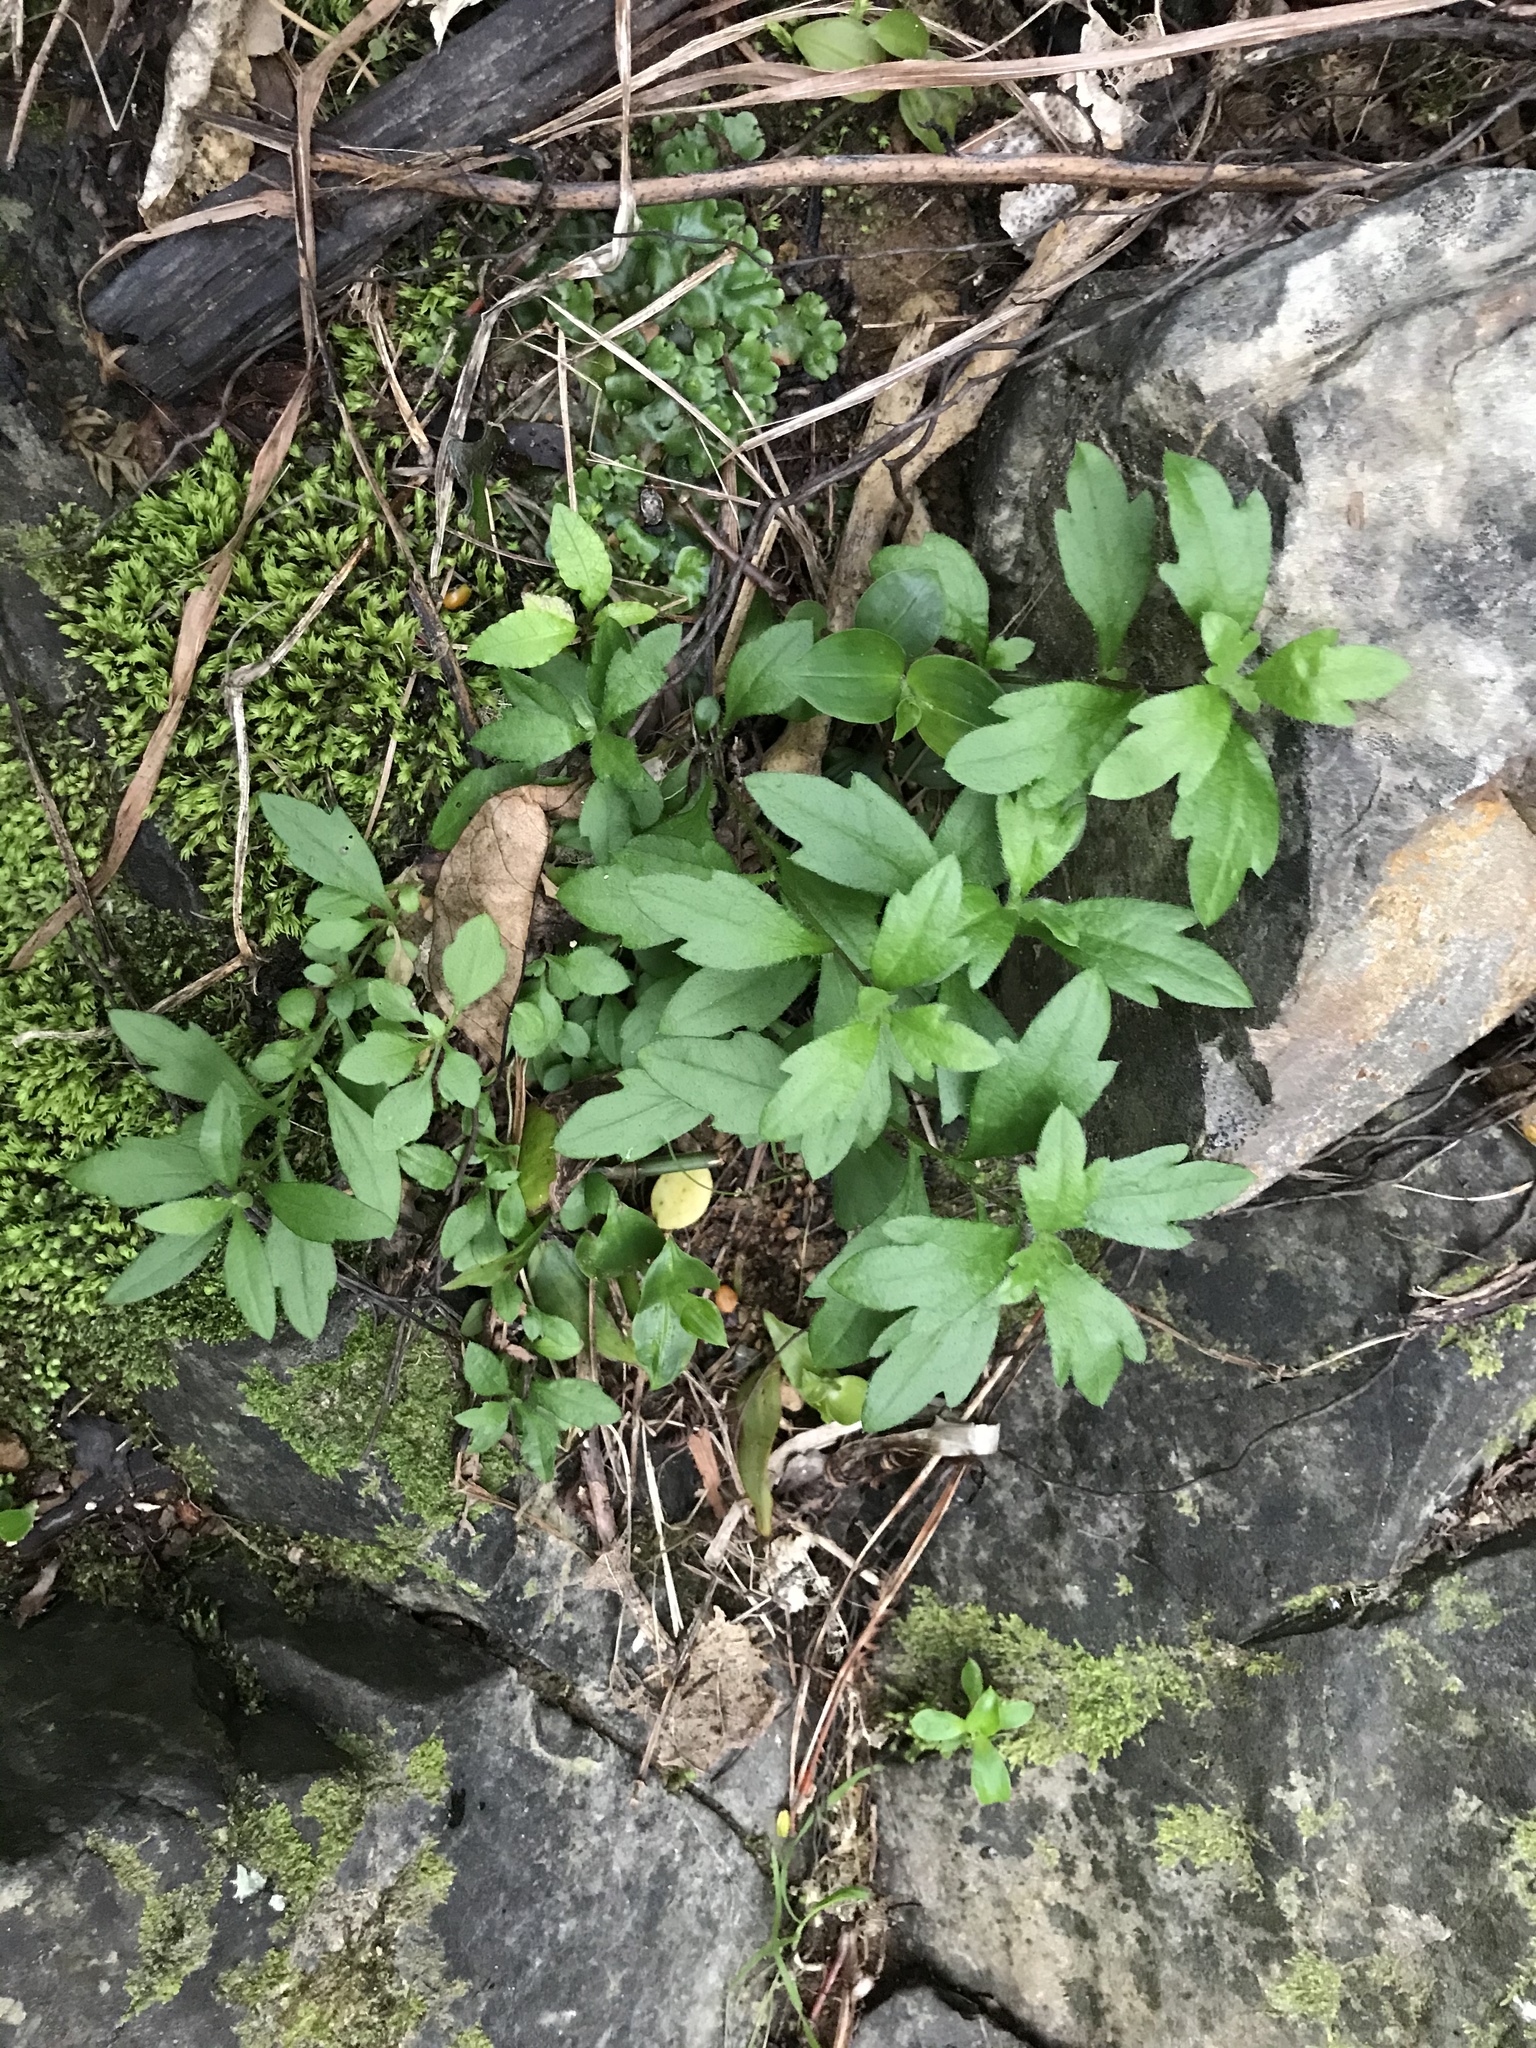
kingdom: Plantae
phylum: Tracheophyta
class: Magnoliopsida
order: Asterales
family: Asteraceae
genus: Erigeron
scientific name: Erigeron karvinskianus
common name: Mexican fleabane
